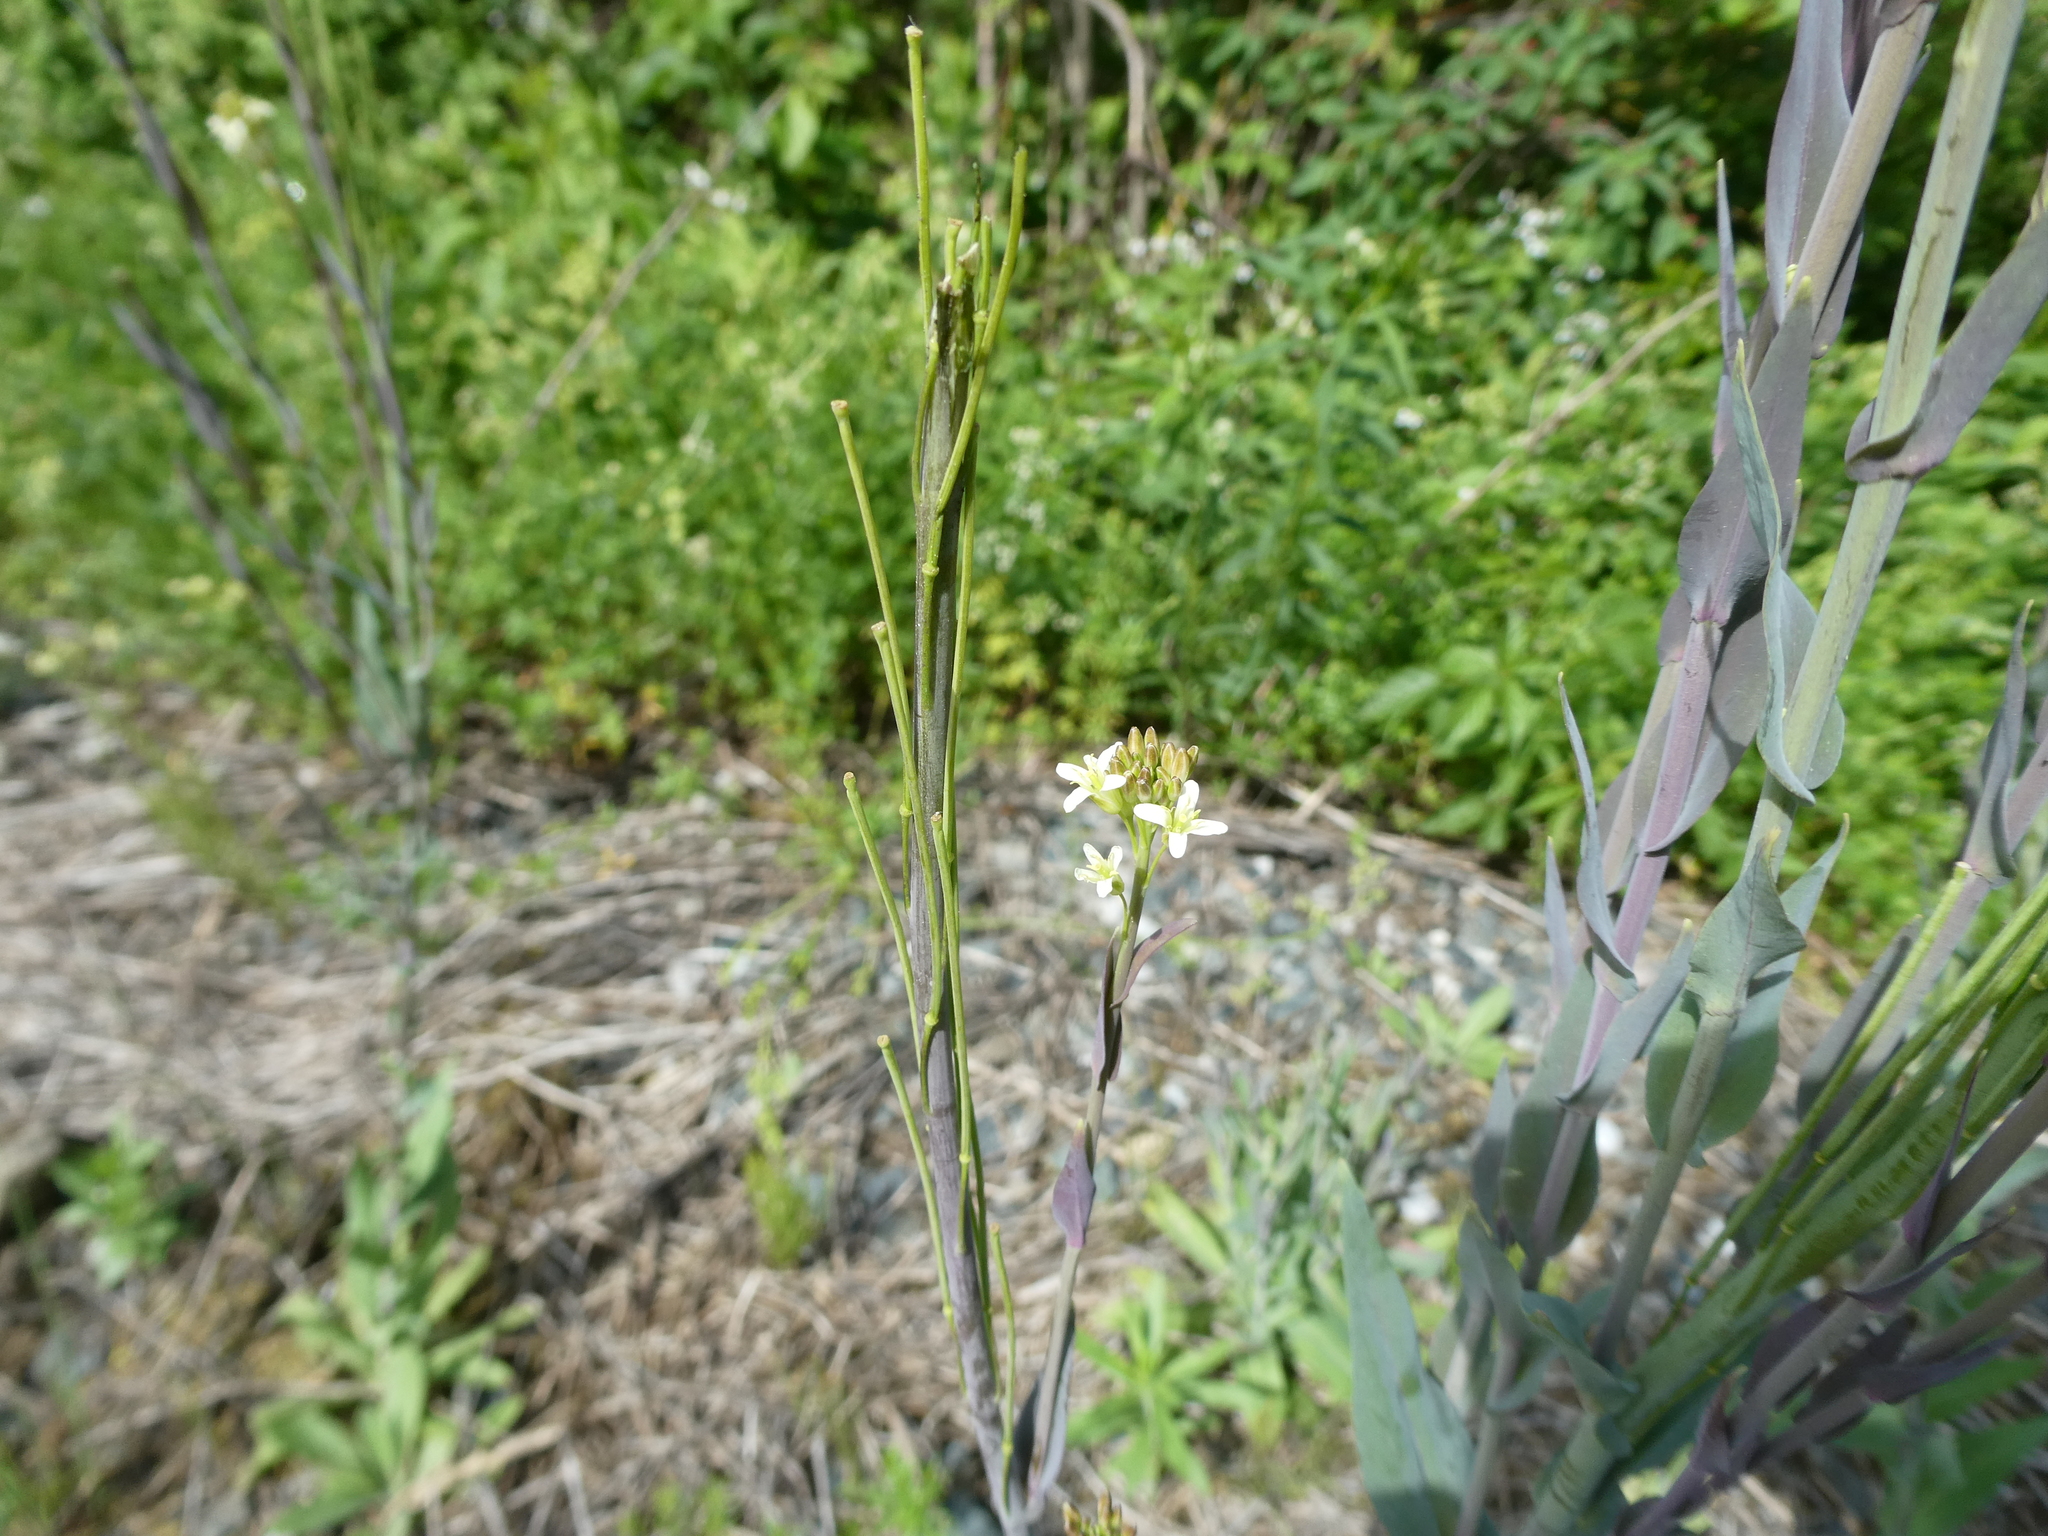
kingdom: Plantae
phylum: Tracheophyta
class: Magnoliopsida
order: Brassicales
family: Brassicaceae
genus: Turritis
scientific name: Turritis glabra
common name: Tower rockcress
